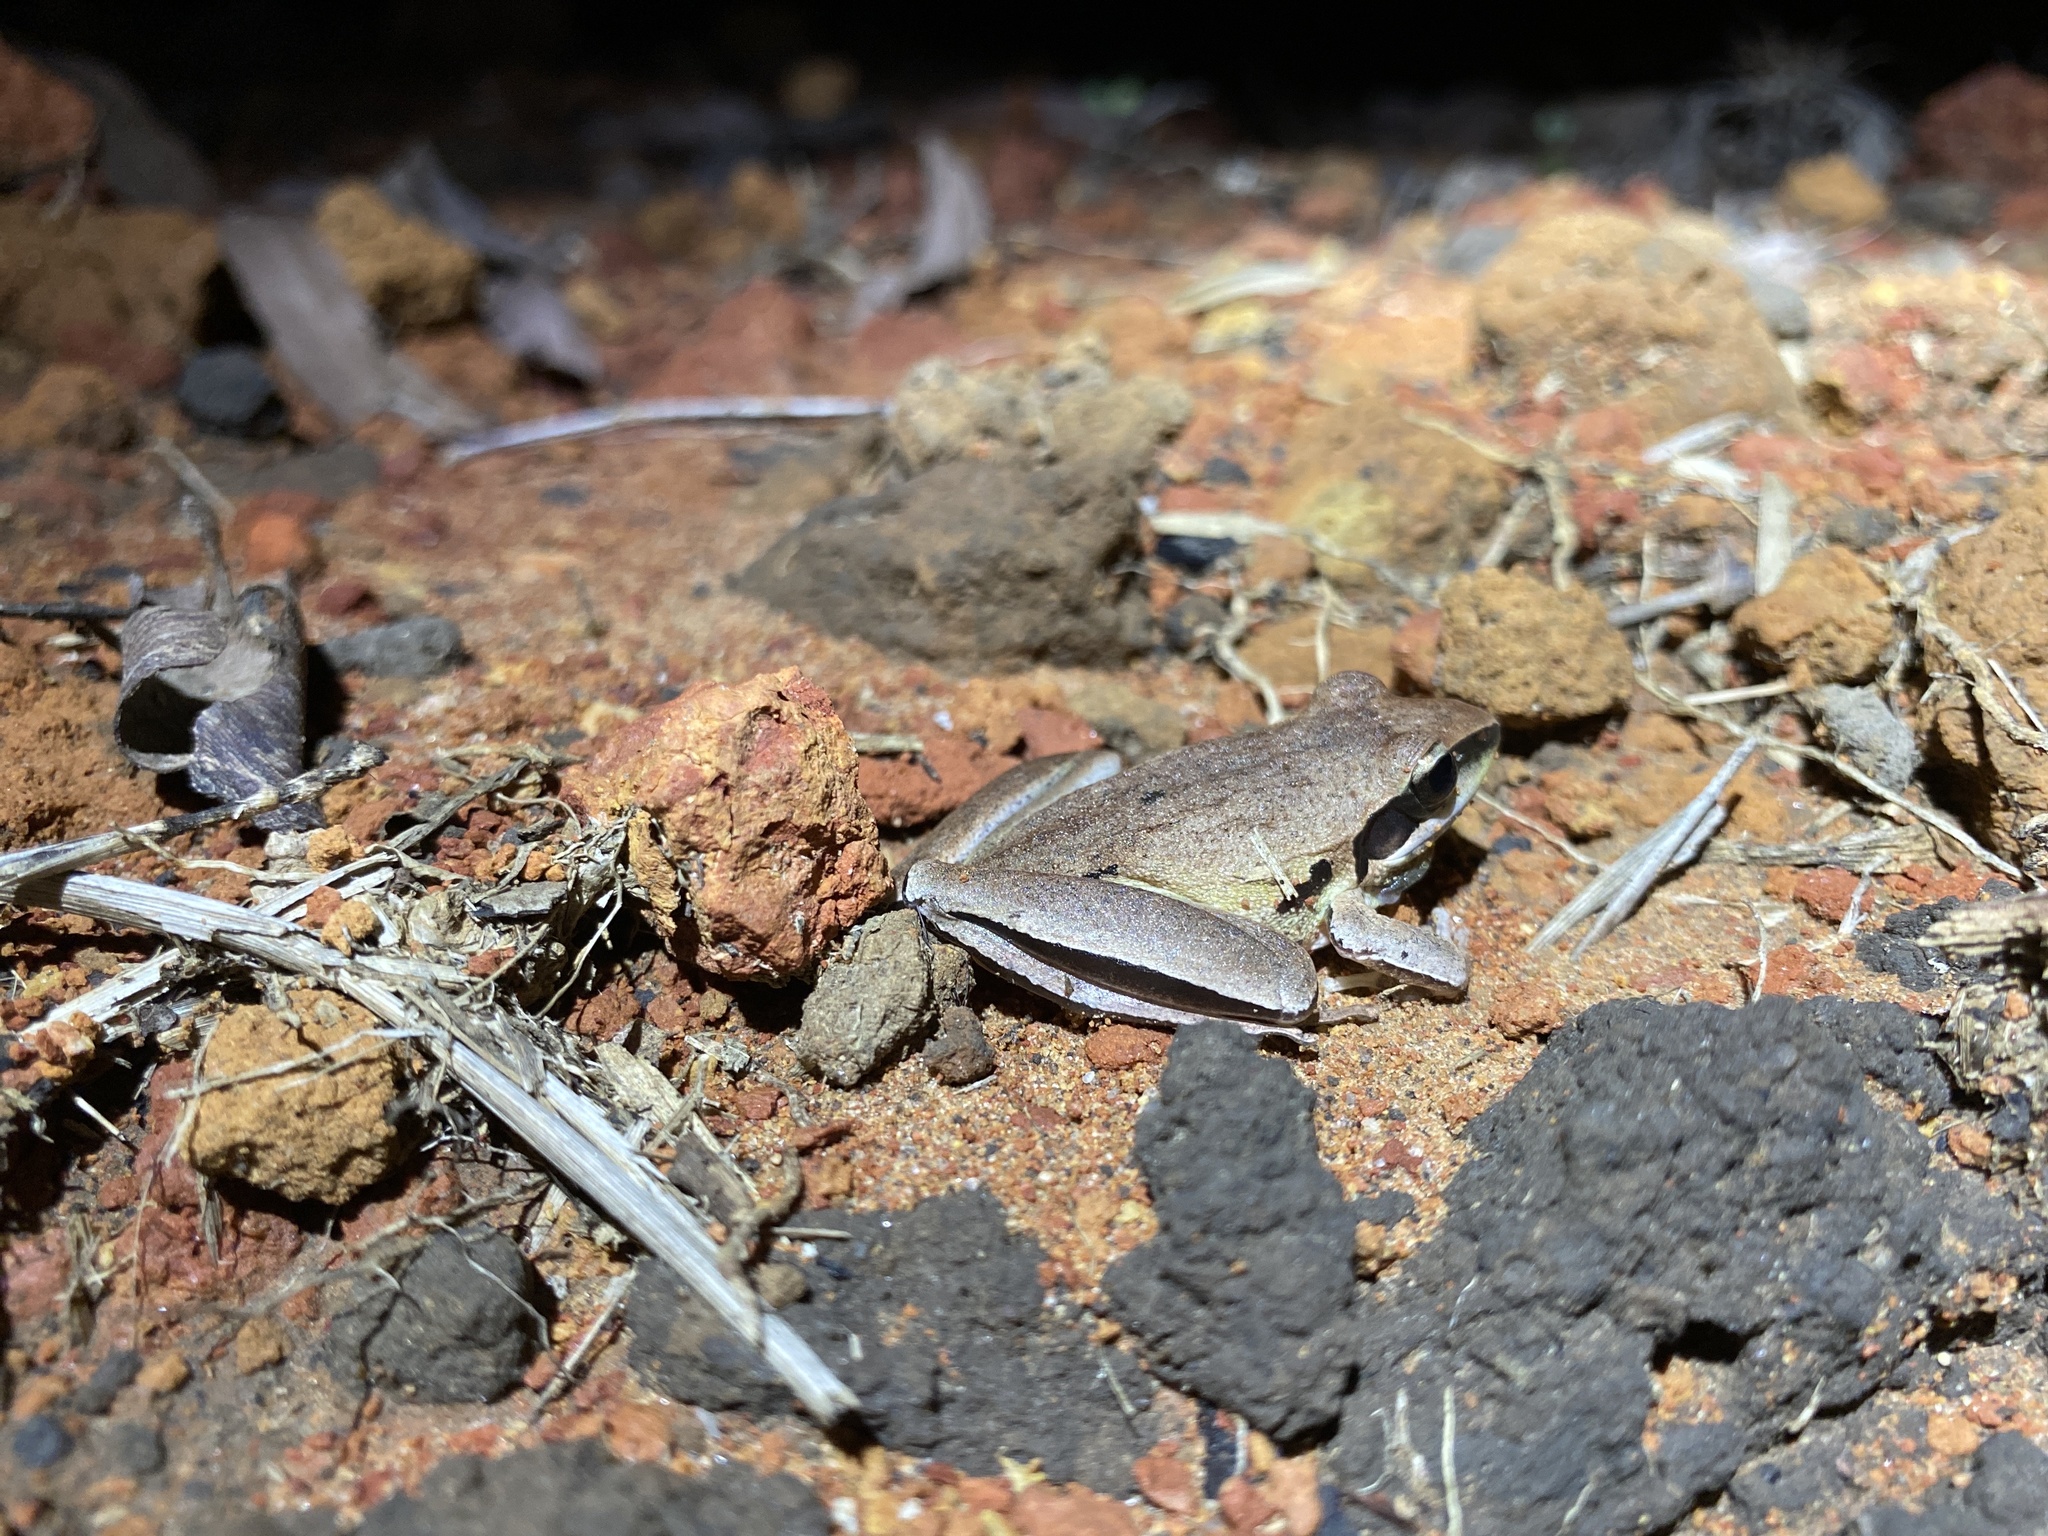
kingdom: Animalia
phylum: Chordata
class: Amphibia
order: Anura
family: Pelodryadidae
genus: Litoria
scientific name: Litoria nigrofrenata
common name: Bridle frog
